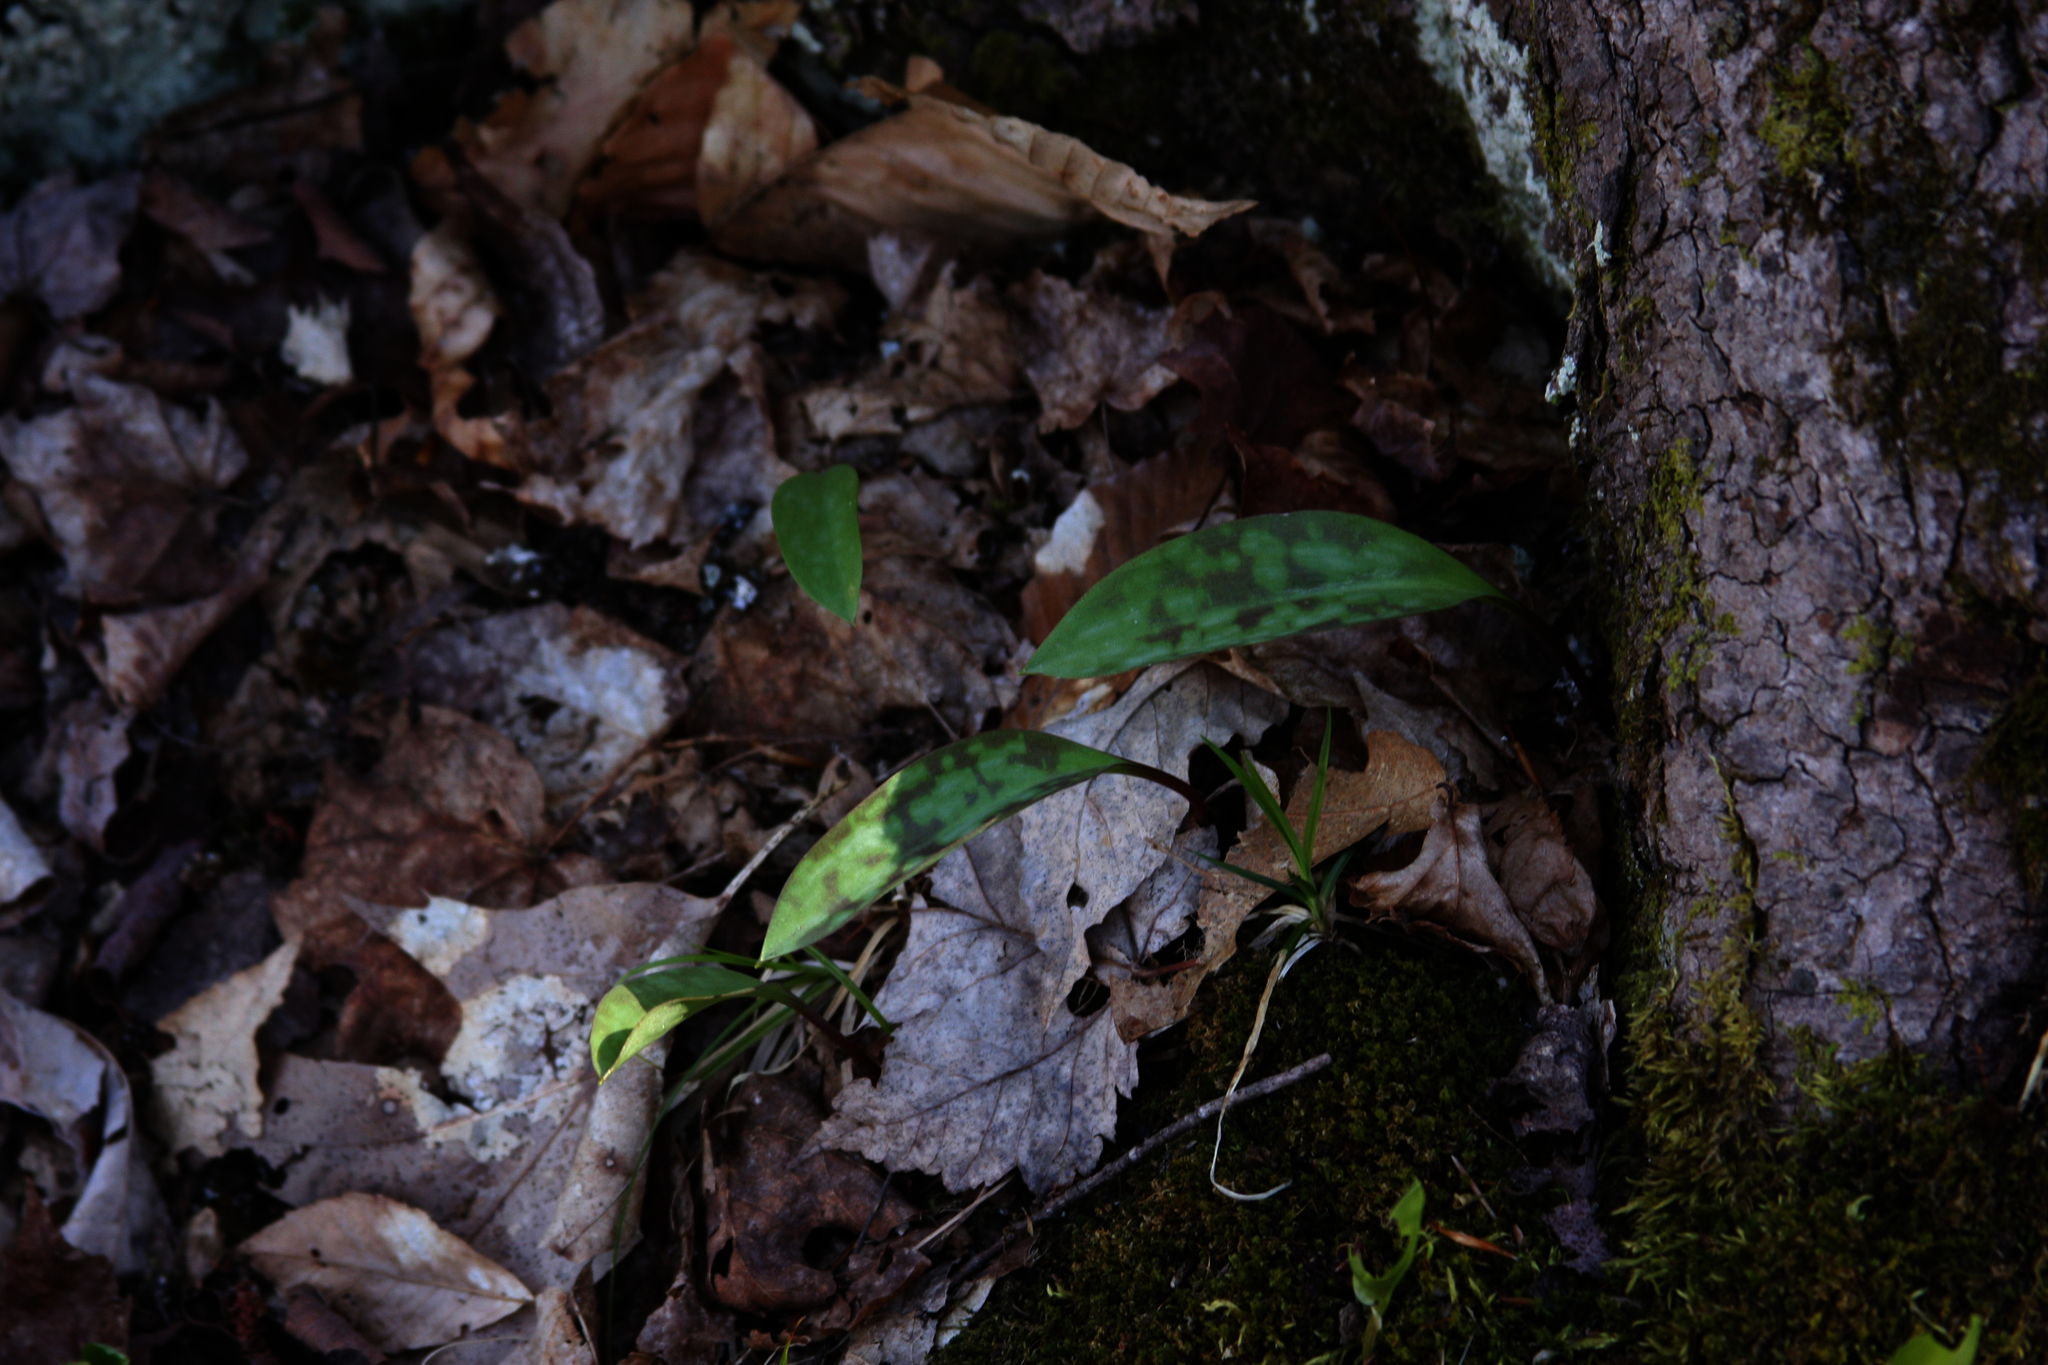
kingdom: Plantae
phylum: Tracheophyta
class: Liliopsida
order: Liliales
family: Liliaceae
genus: Erythronium
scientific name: Erythronium americanum
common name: Yellow adder's-tongue
